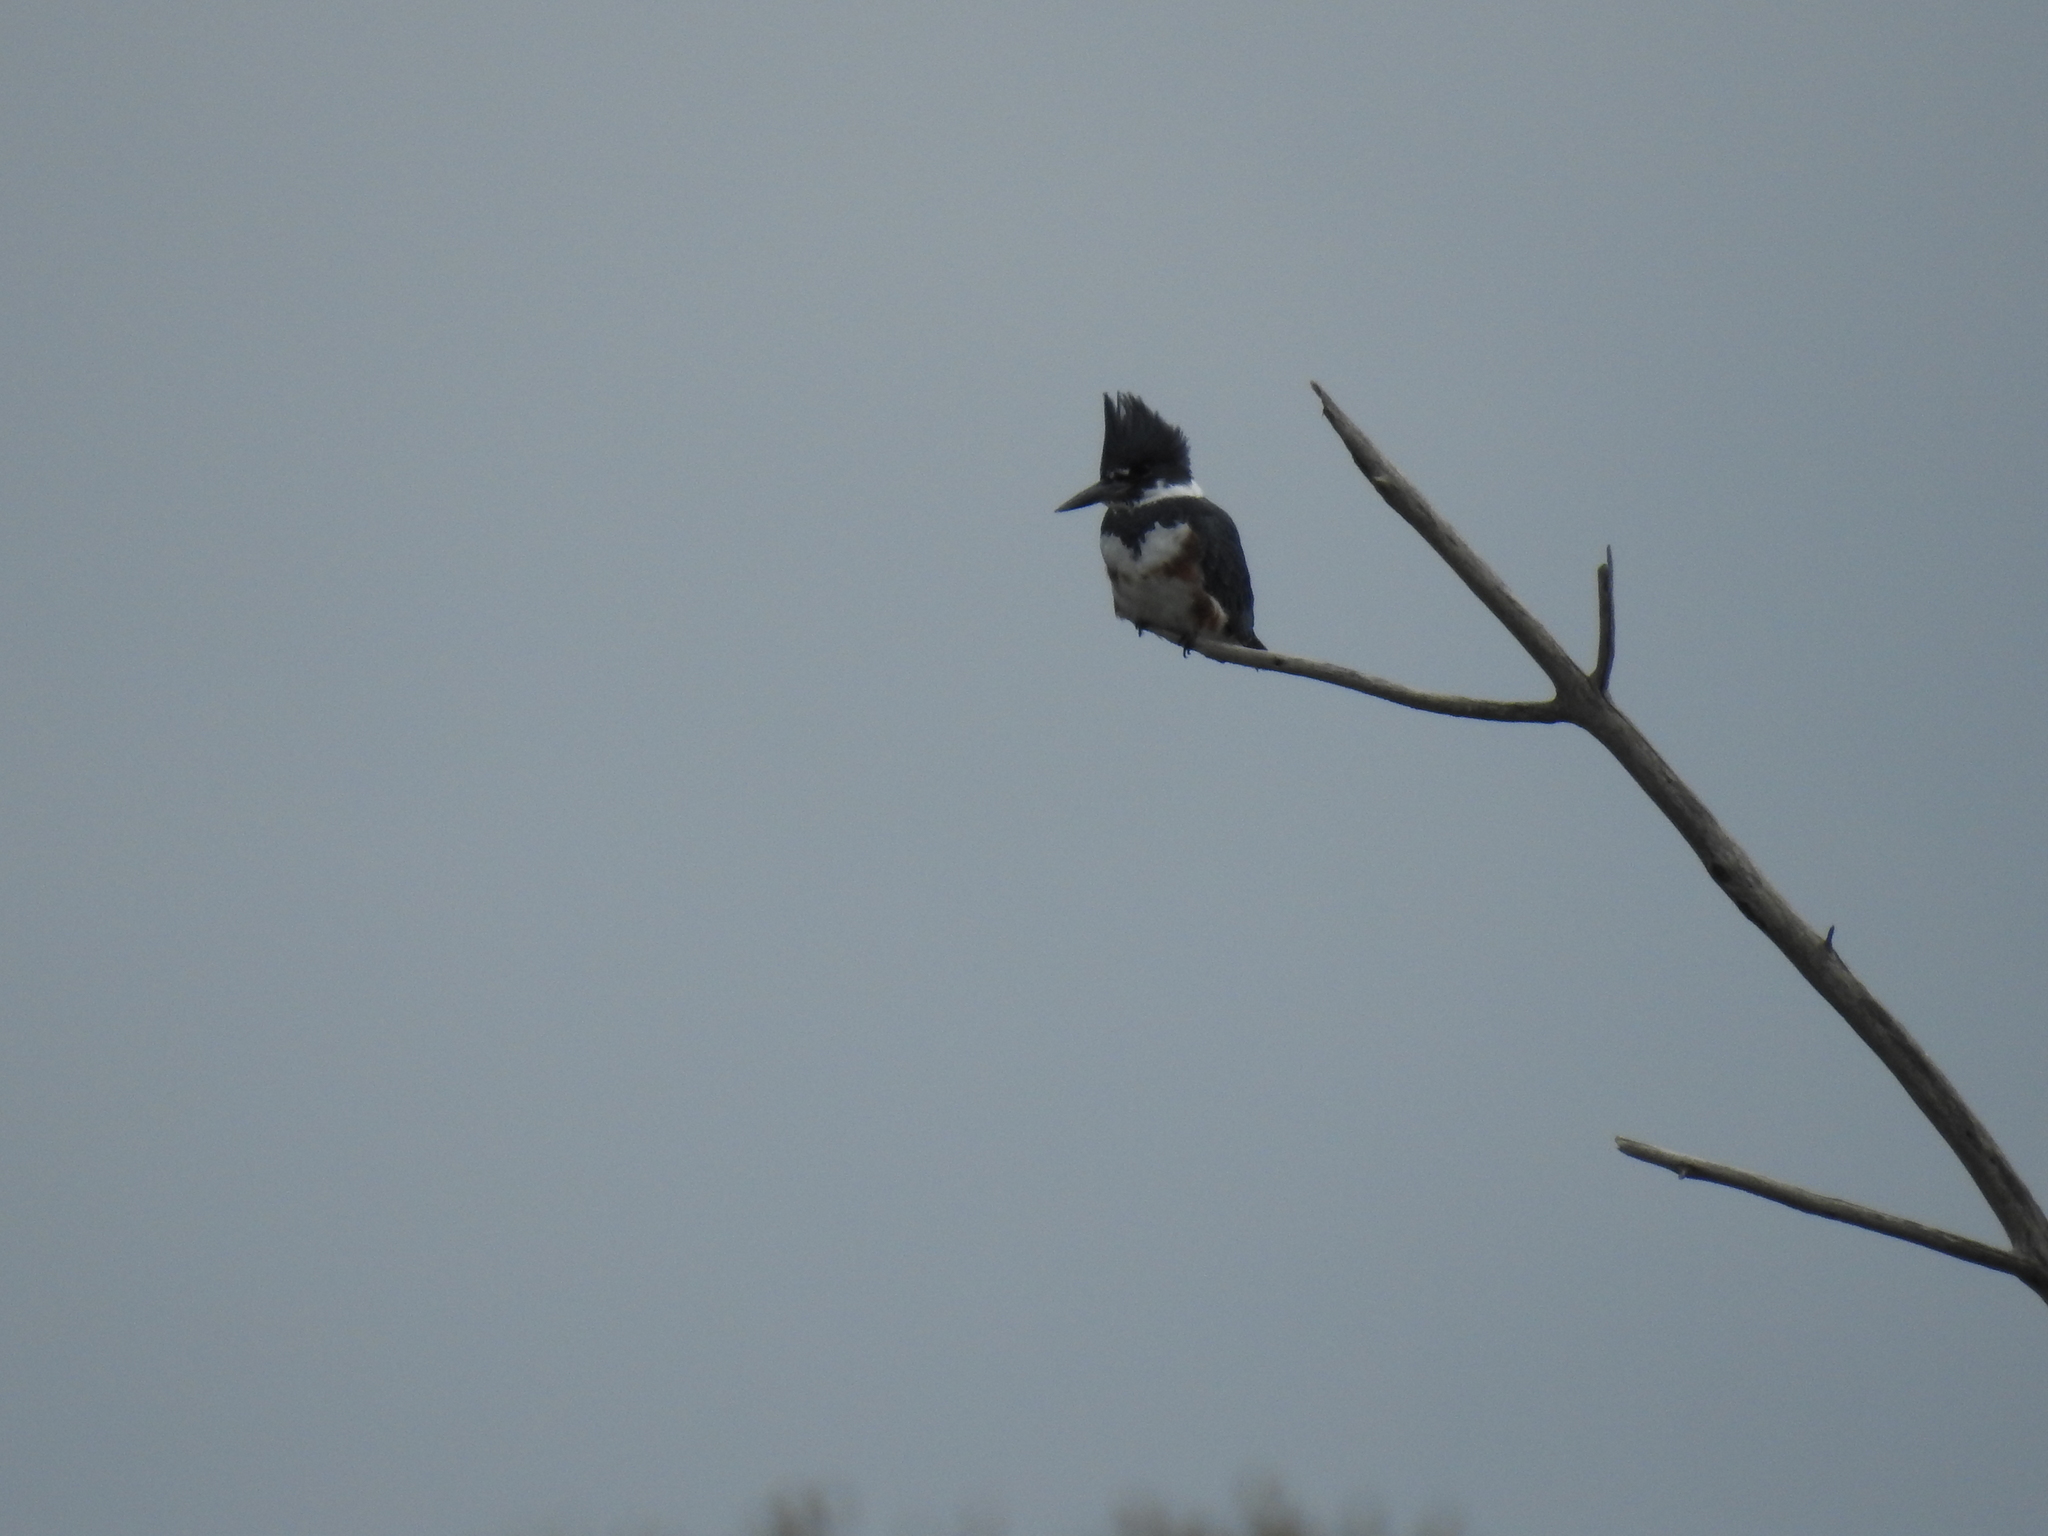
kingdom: Animalia
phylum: Chordata
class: Aves
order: Coraciiformes
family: Alcedinidae
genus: Megaceryle
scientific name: Megaceryle alcyon
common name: Belted kingfisher
